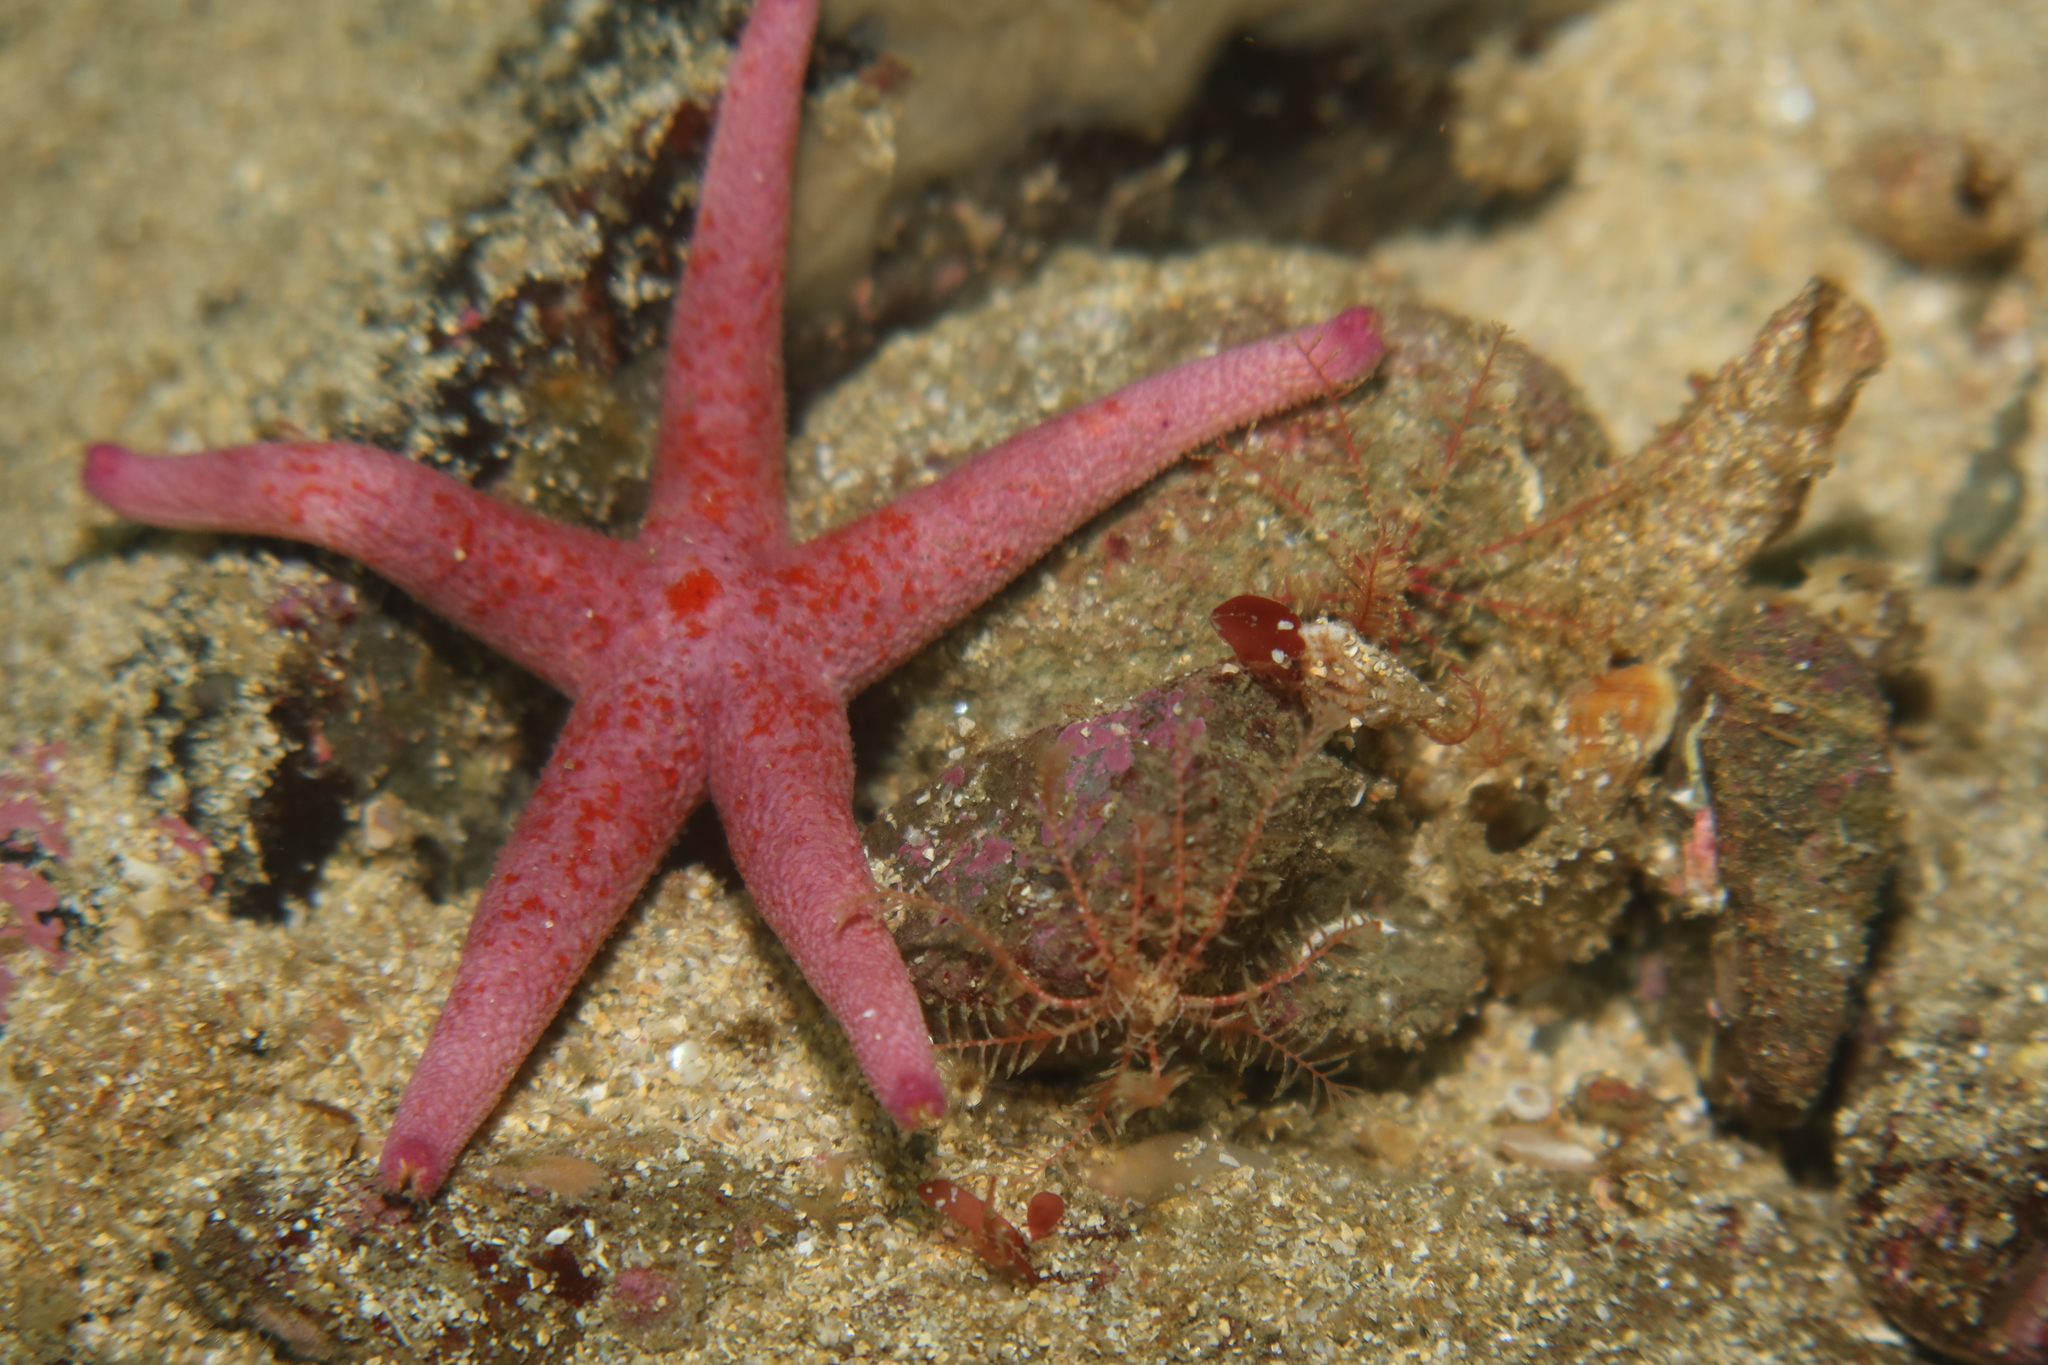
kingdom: Animalia
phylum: Echinodermata
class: Asteroidea
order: Spinulosida
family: Echinasteridae
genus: Henricia
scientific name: Henricia oculata
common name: Bloody henry starfish
